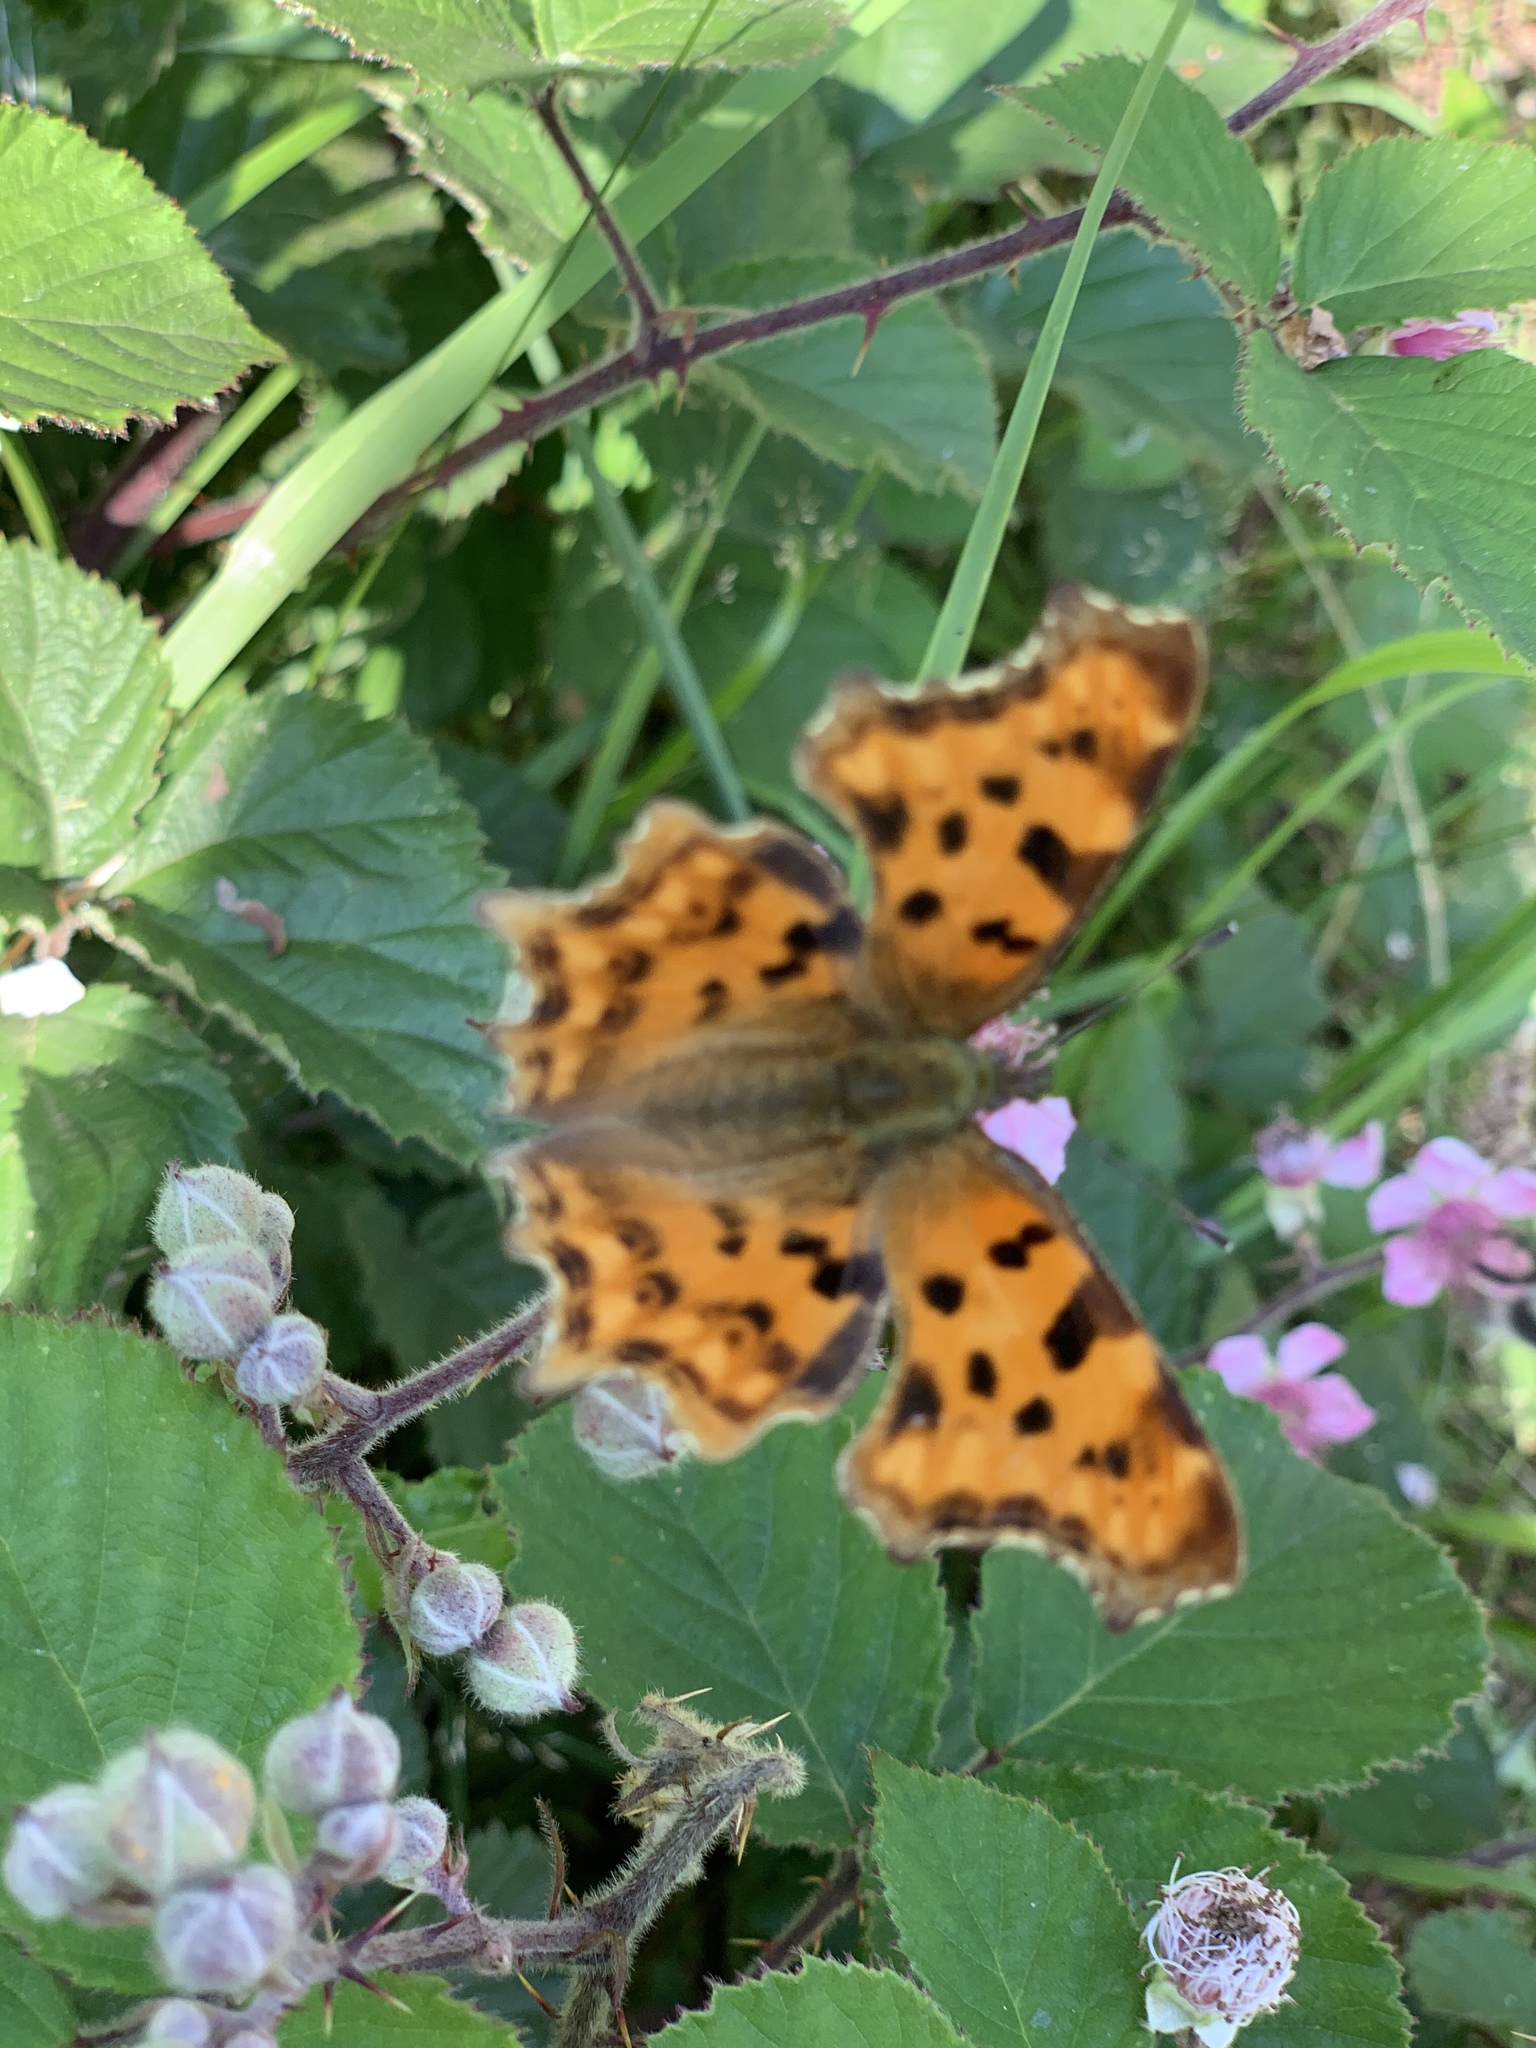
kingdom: Animalia
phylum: Arthropoda
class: Insecta
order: Lepidoptera
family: Nymphalidae
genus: Polygonia
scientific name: Polygonia c-album
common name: Comma
